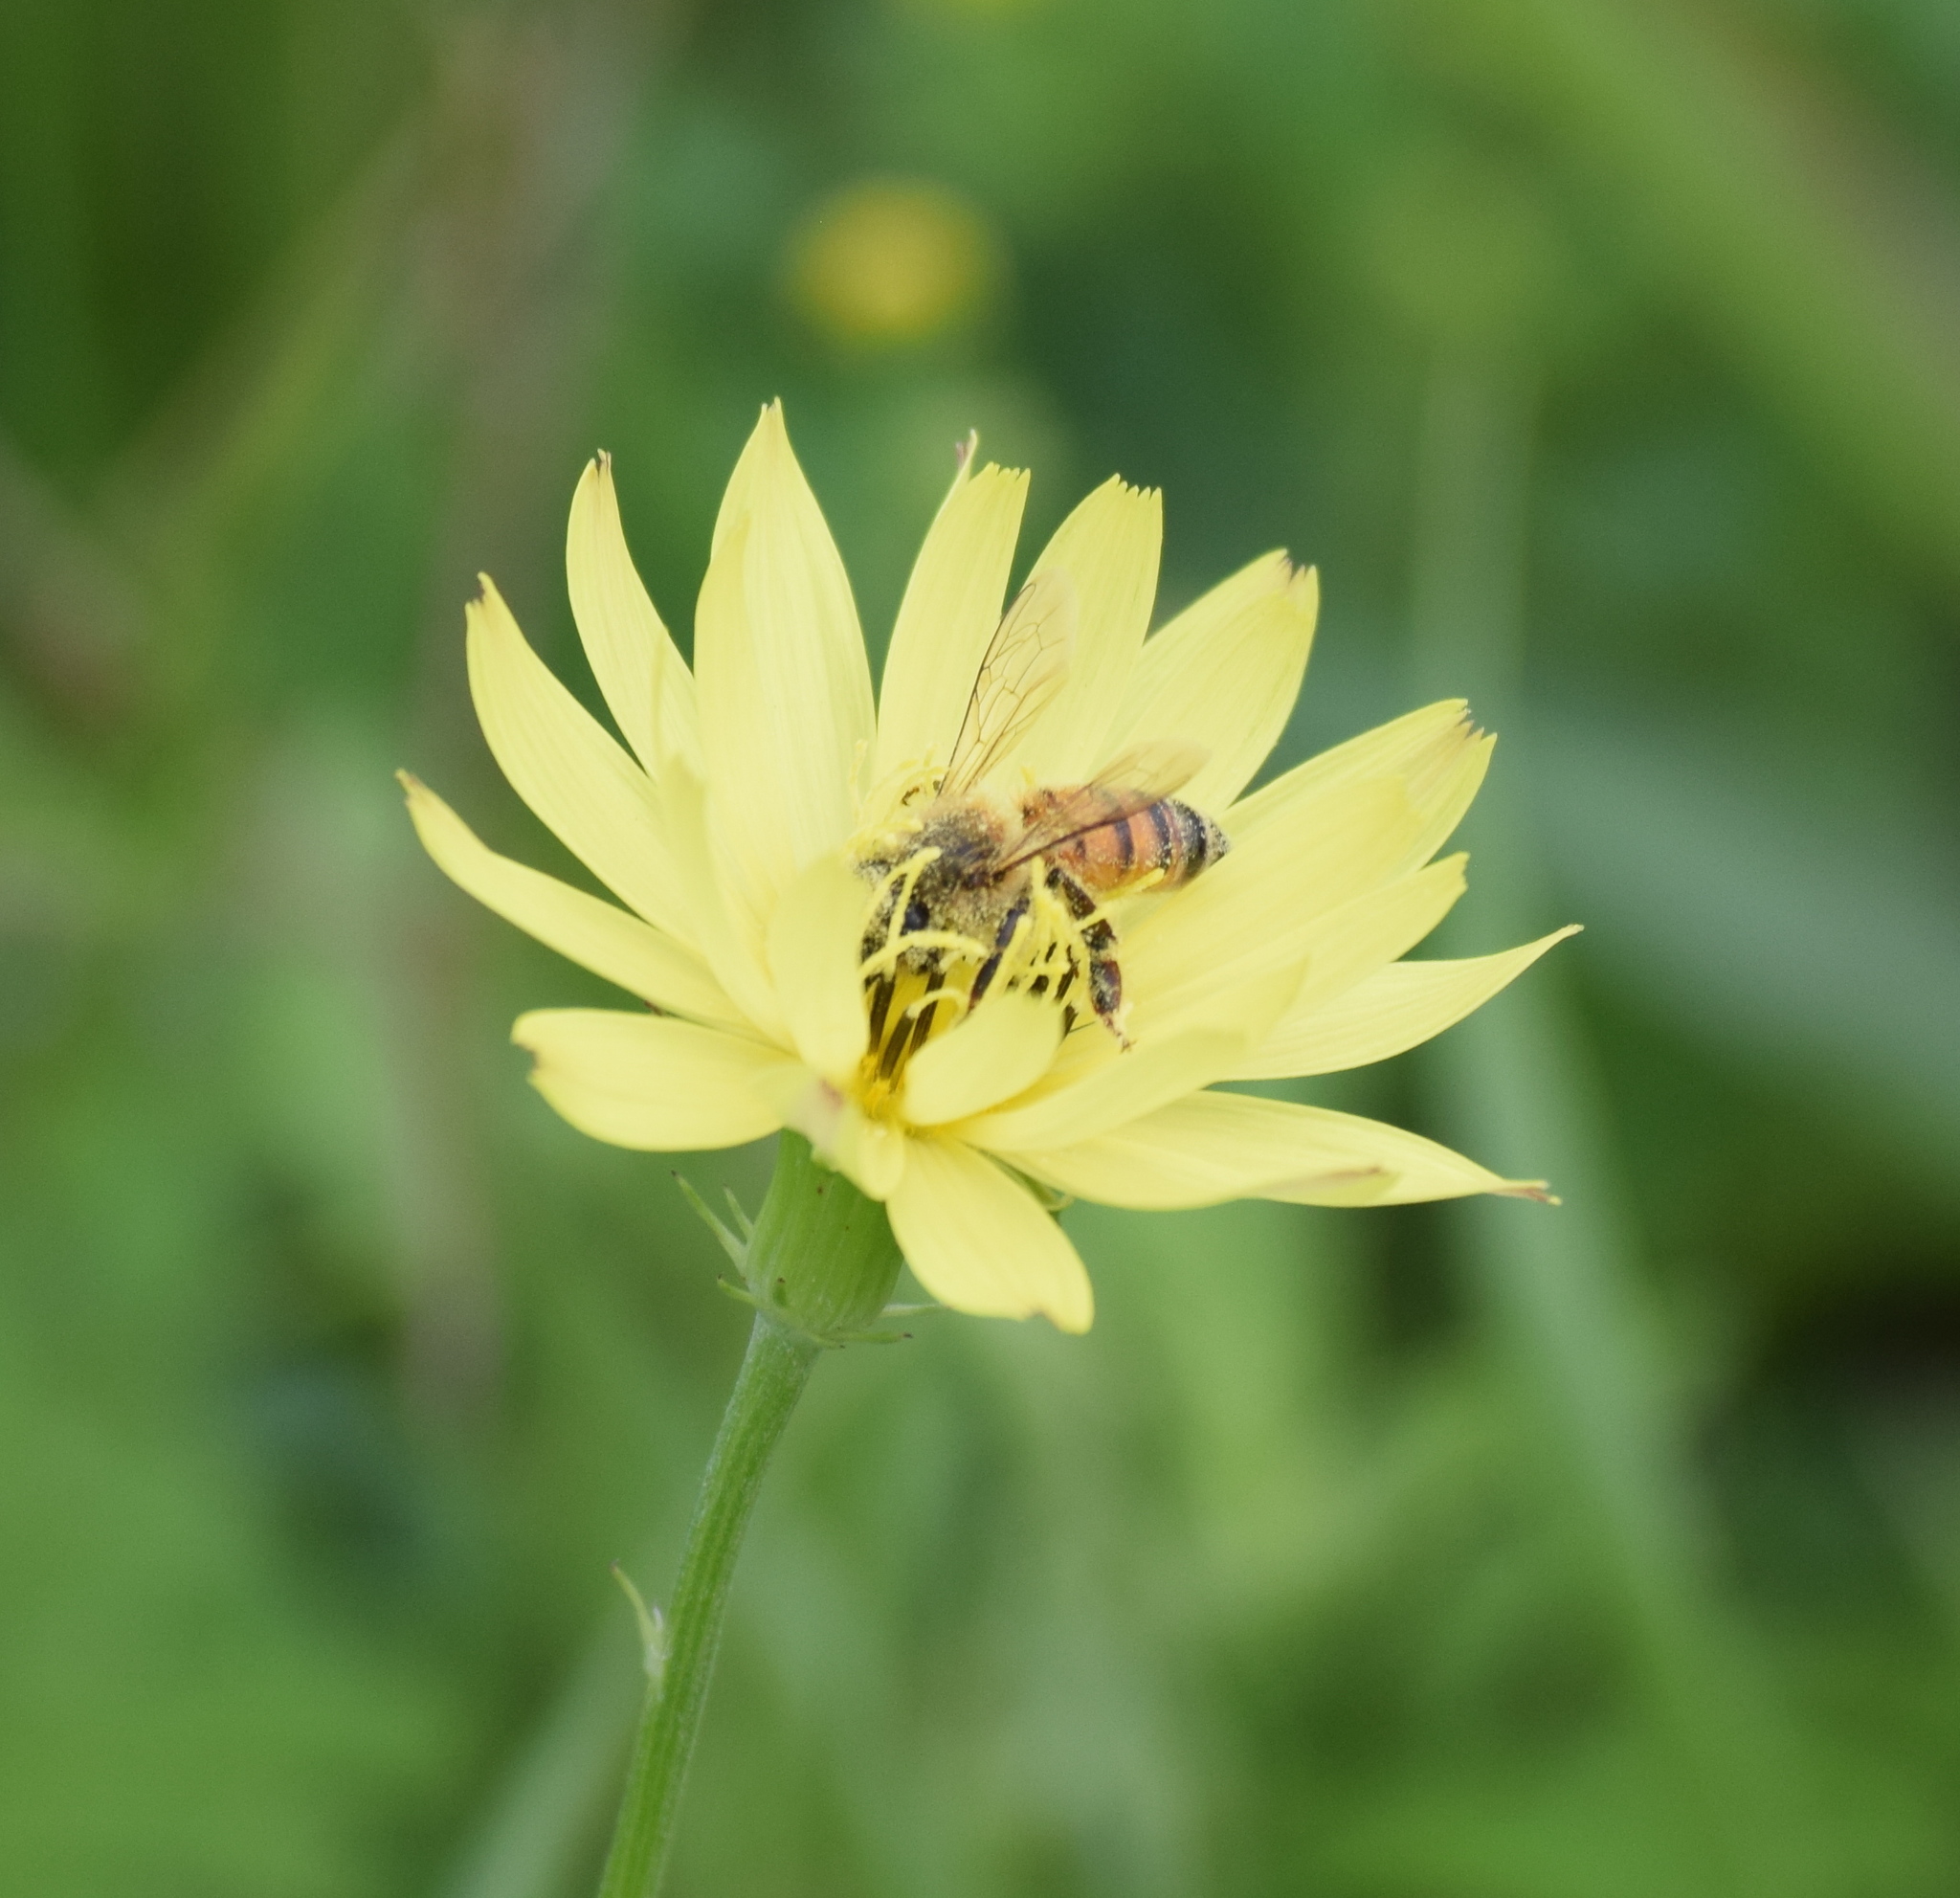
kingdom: Animalia
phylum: Arthropoda
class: Insecta
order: Hymenoptera
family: Apidae
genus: Apis
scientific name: Apis mellifera
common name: Honey bee
